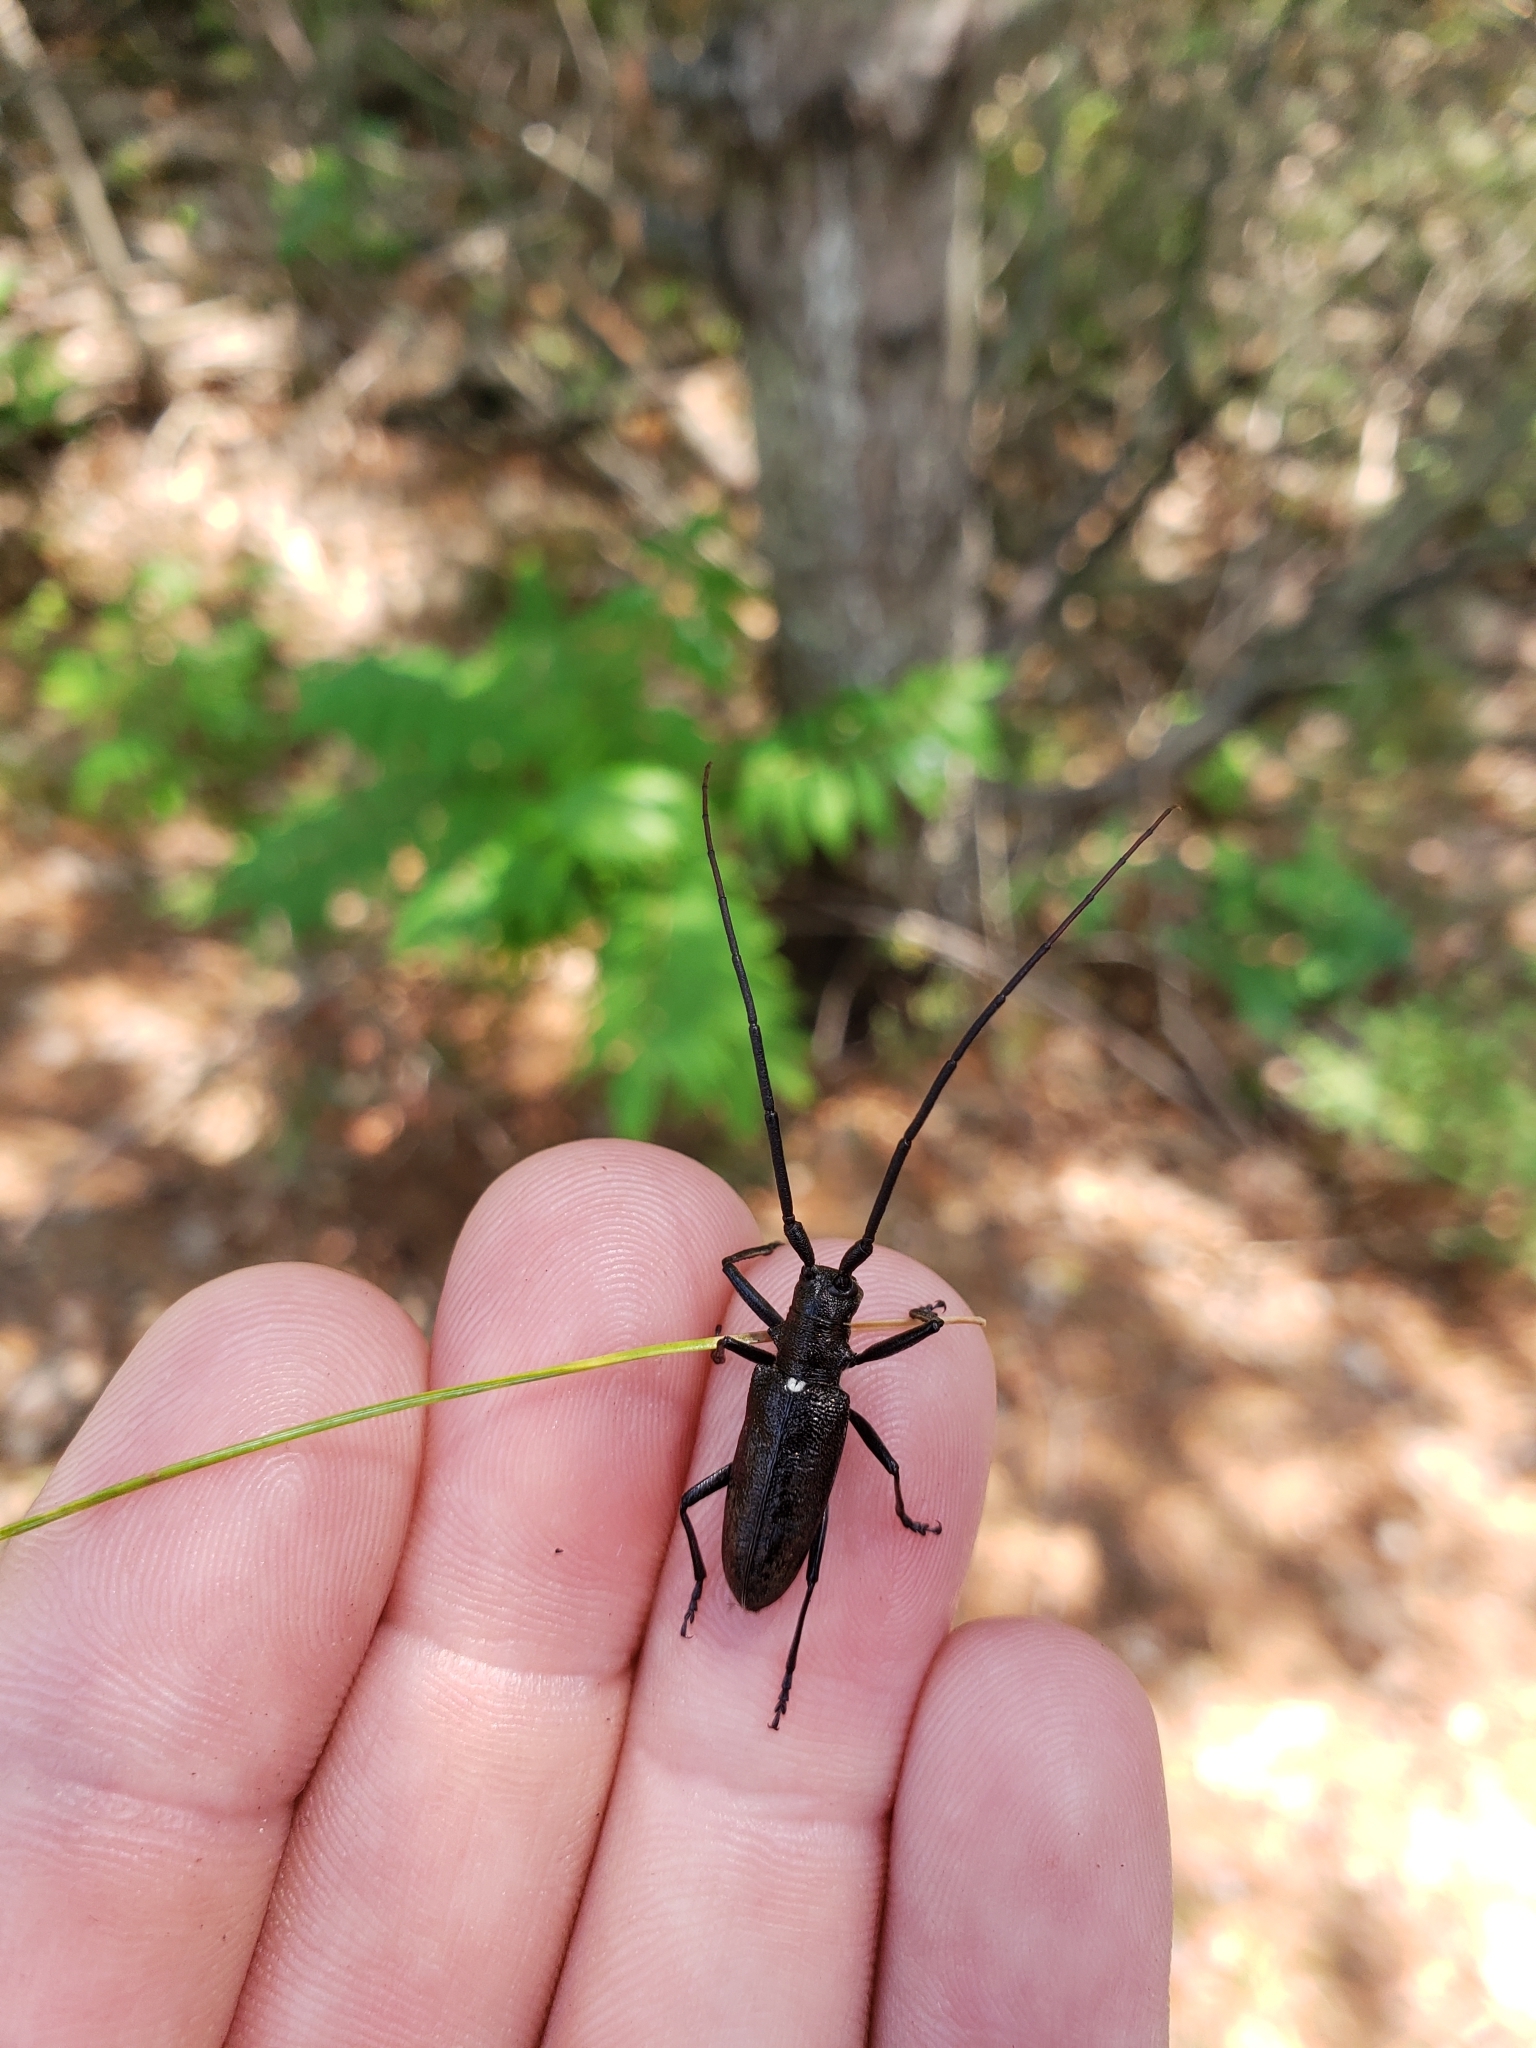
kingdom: Animalia
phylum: Arthropoda
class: Insecta
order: Coleoptera
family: Cerambycidae
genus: Monochamus
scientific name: Monochamus scutellatus
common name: White-spotted sawyer beetle
